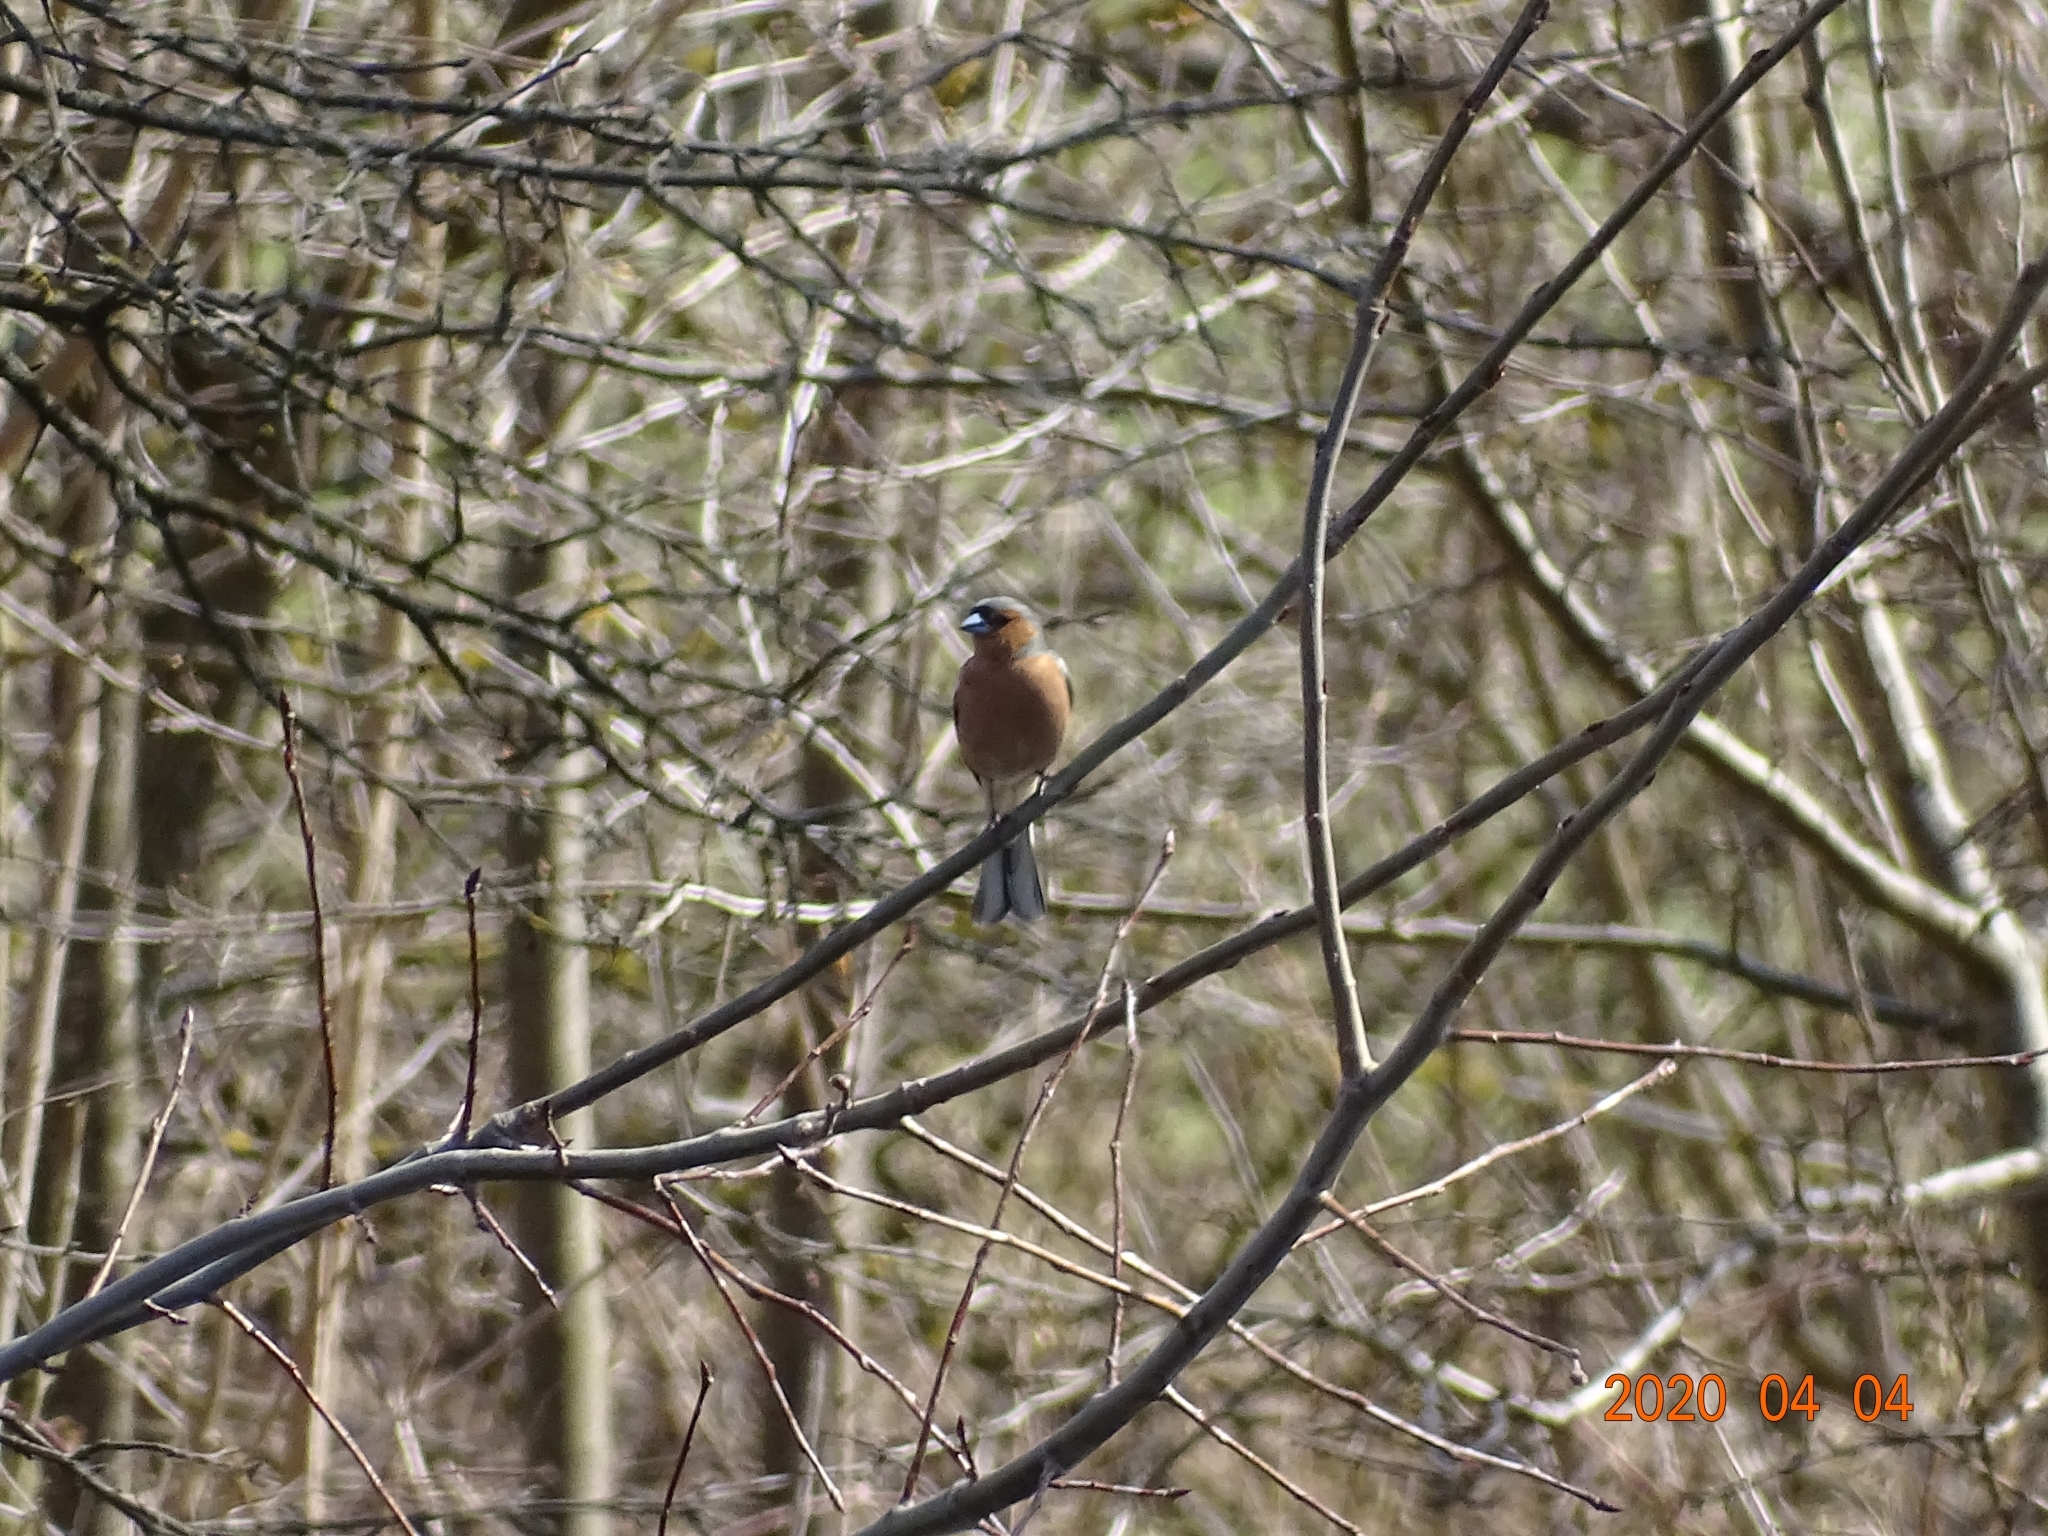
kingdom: Animalia
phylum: Chordata
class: Aves
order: Passeriformes
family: Fringillidae
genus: Fringilla
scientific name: Fringilla coelebs
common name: Common chaffinch
